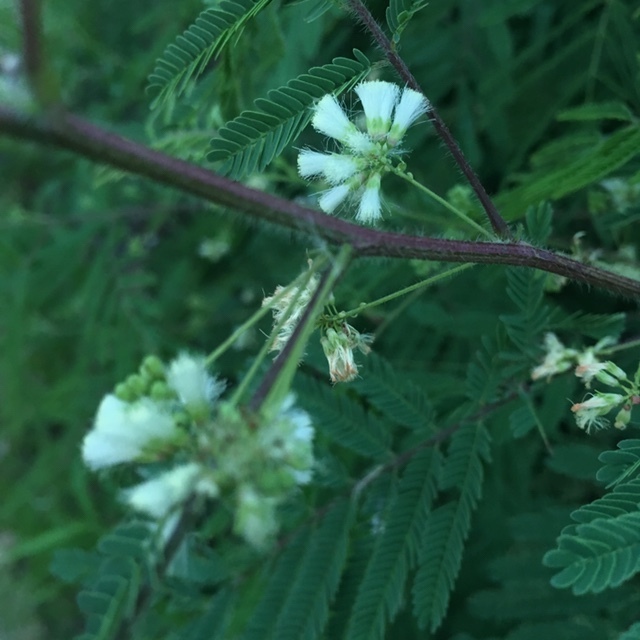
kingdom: Plantae
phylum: Tracheophyta
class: Magnoliopsida
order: Fabales
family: Fabaceae
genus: Acaciella
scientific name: Acaciella angustissima
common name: Prairie acacia
